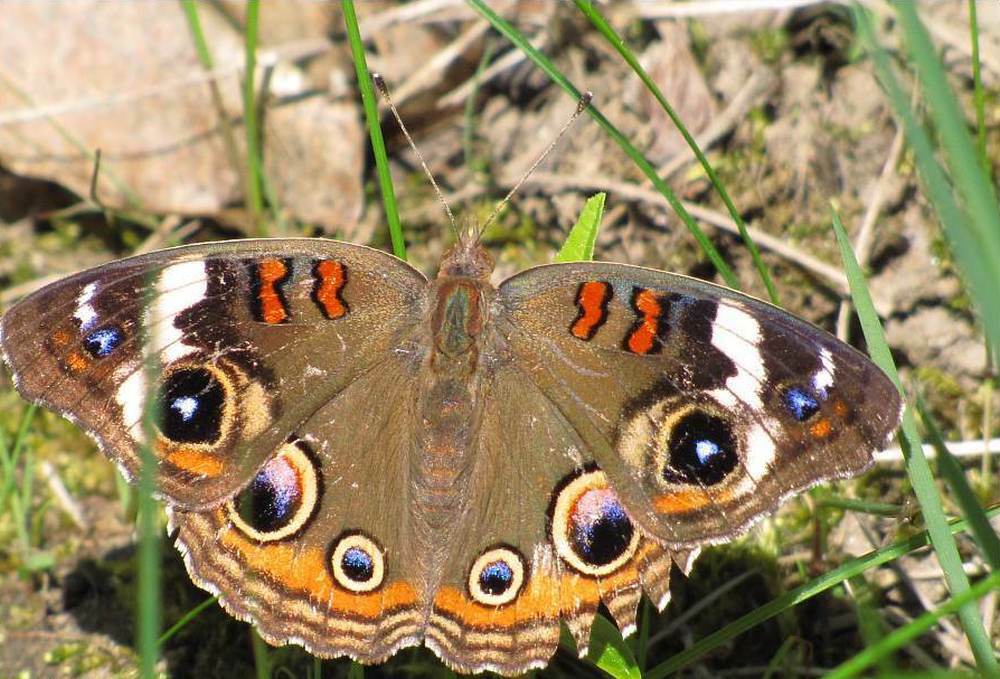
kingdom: Animalia
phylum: Arthropoda
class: Insecta
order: Lepidoptera
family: Nymphalidae
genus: Junonia
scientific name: Junonia coenia
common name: Common buckeye
